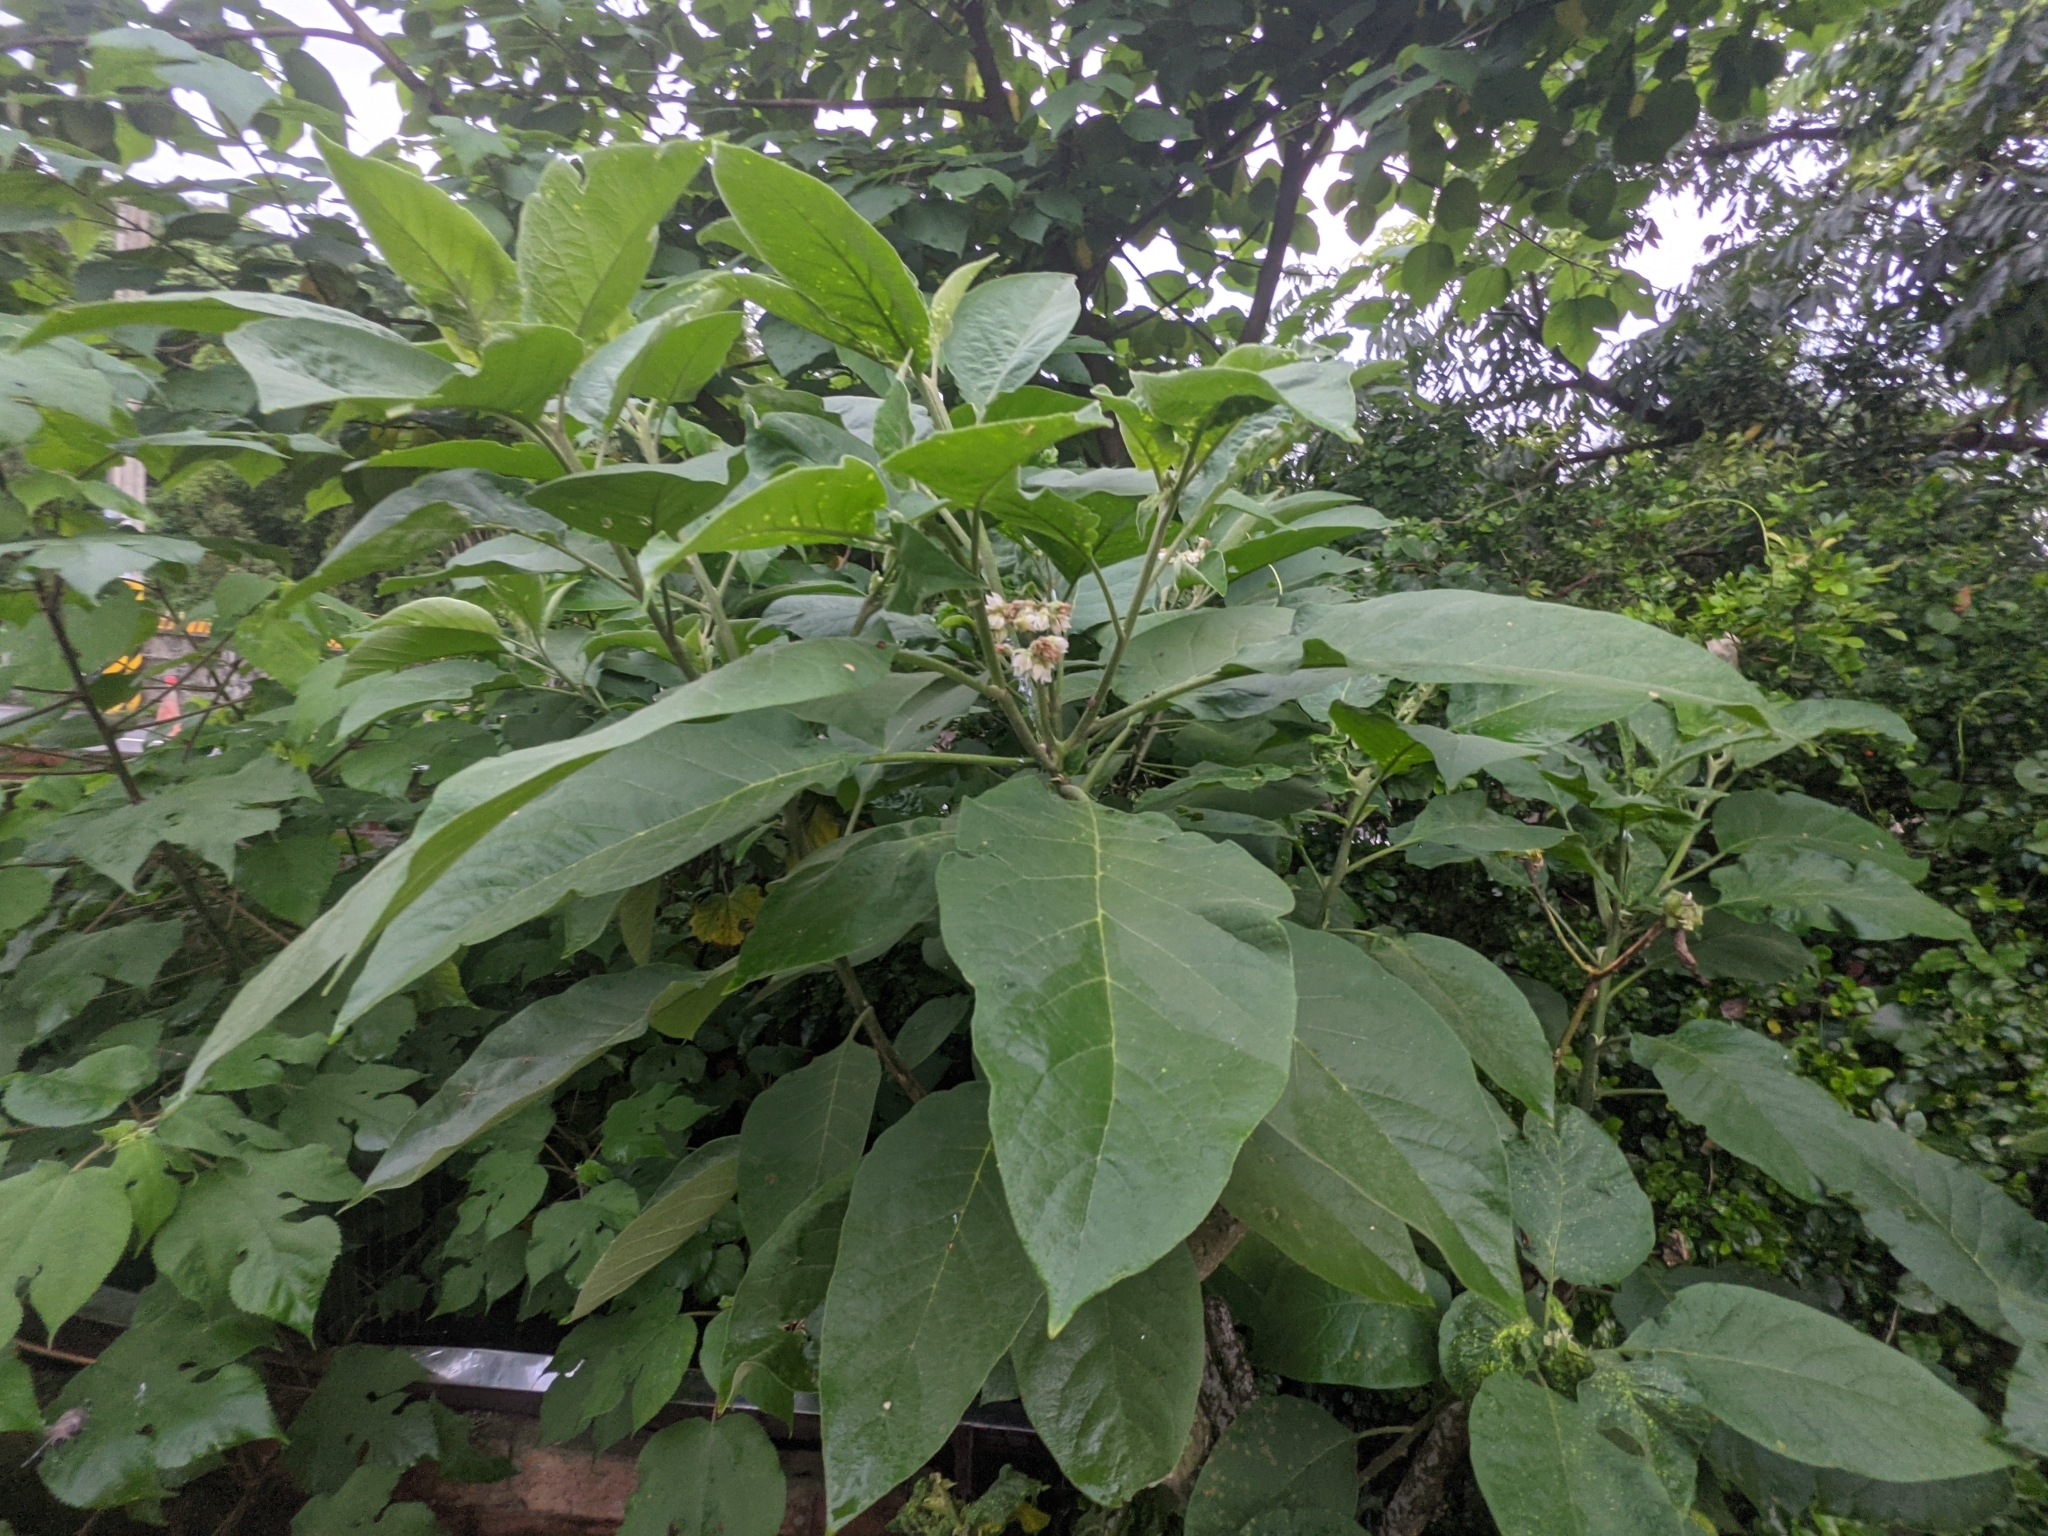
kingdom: Plantae
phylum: Tracheophyta
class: Magnoliopsida
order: Solanales
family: Solanaceae
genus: Solanum
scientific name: Solanum erianthum
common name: Tobacco-tree
